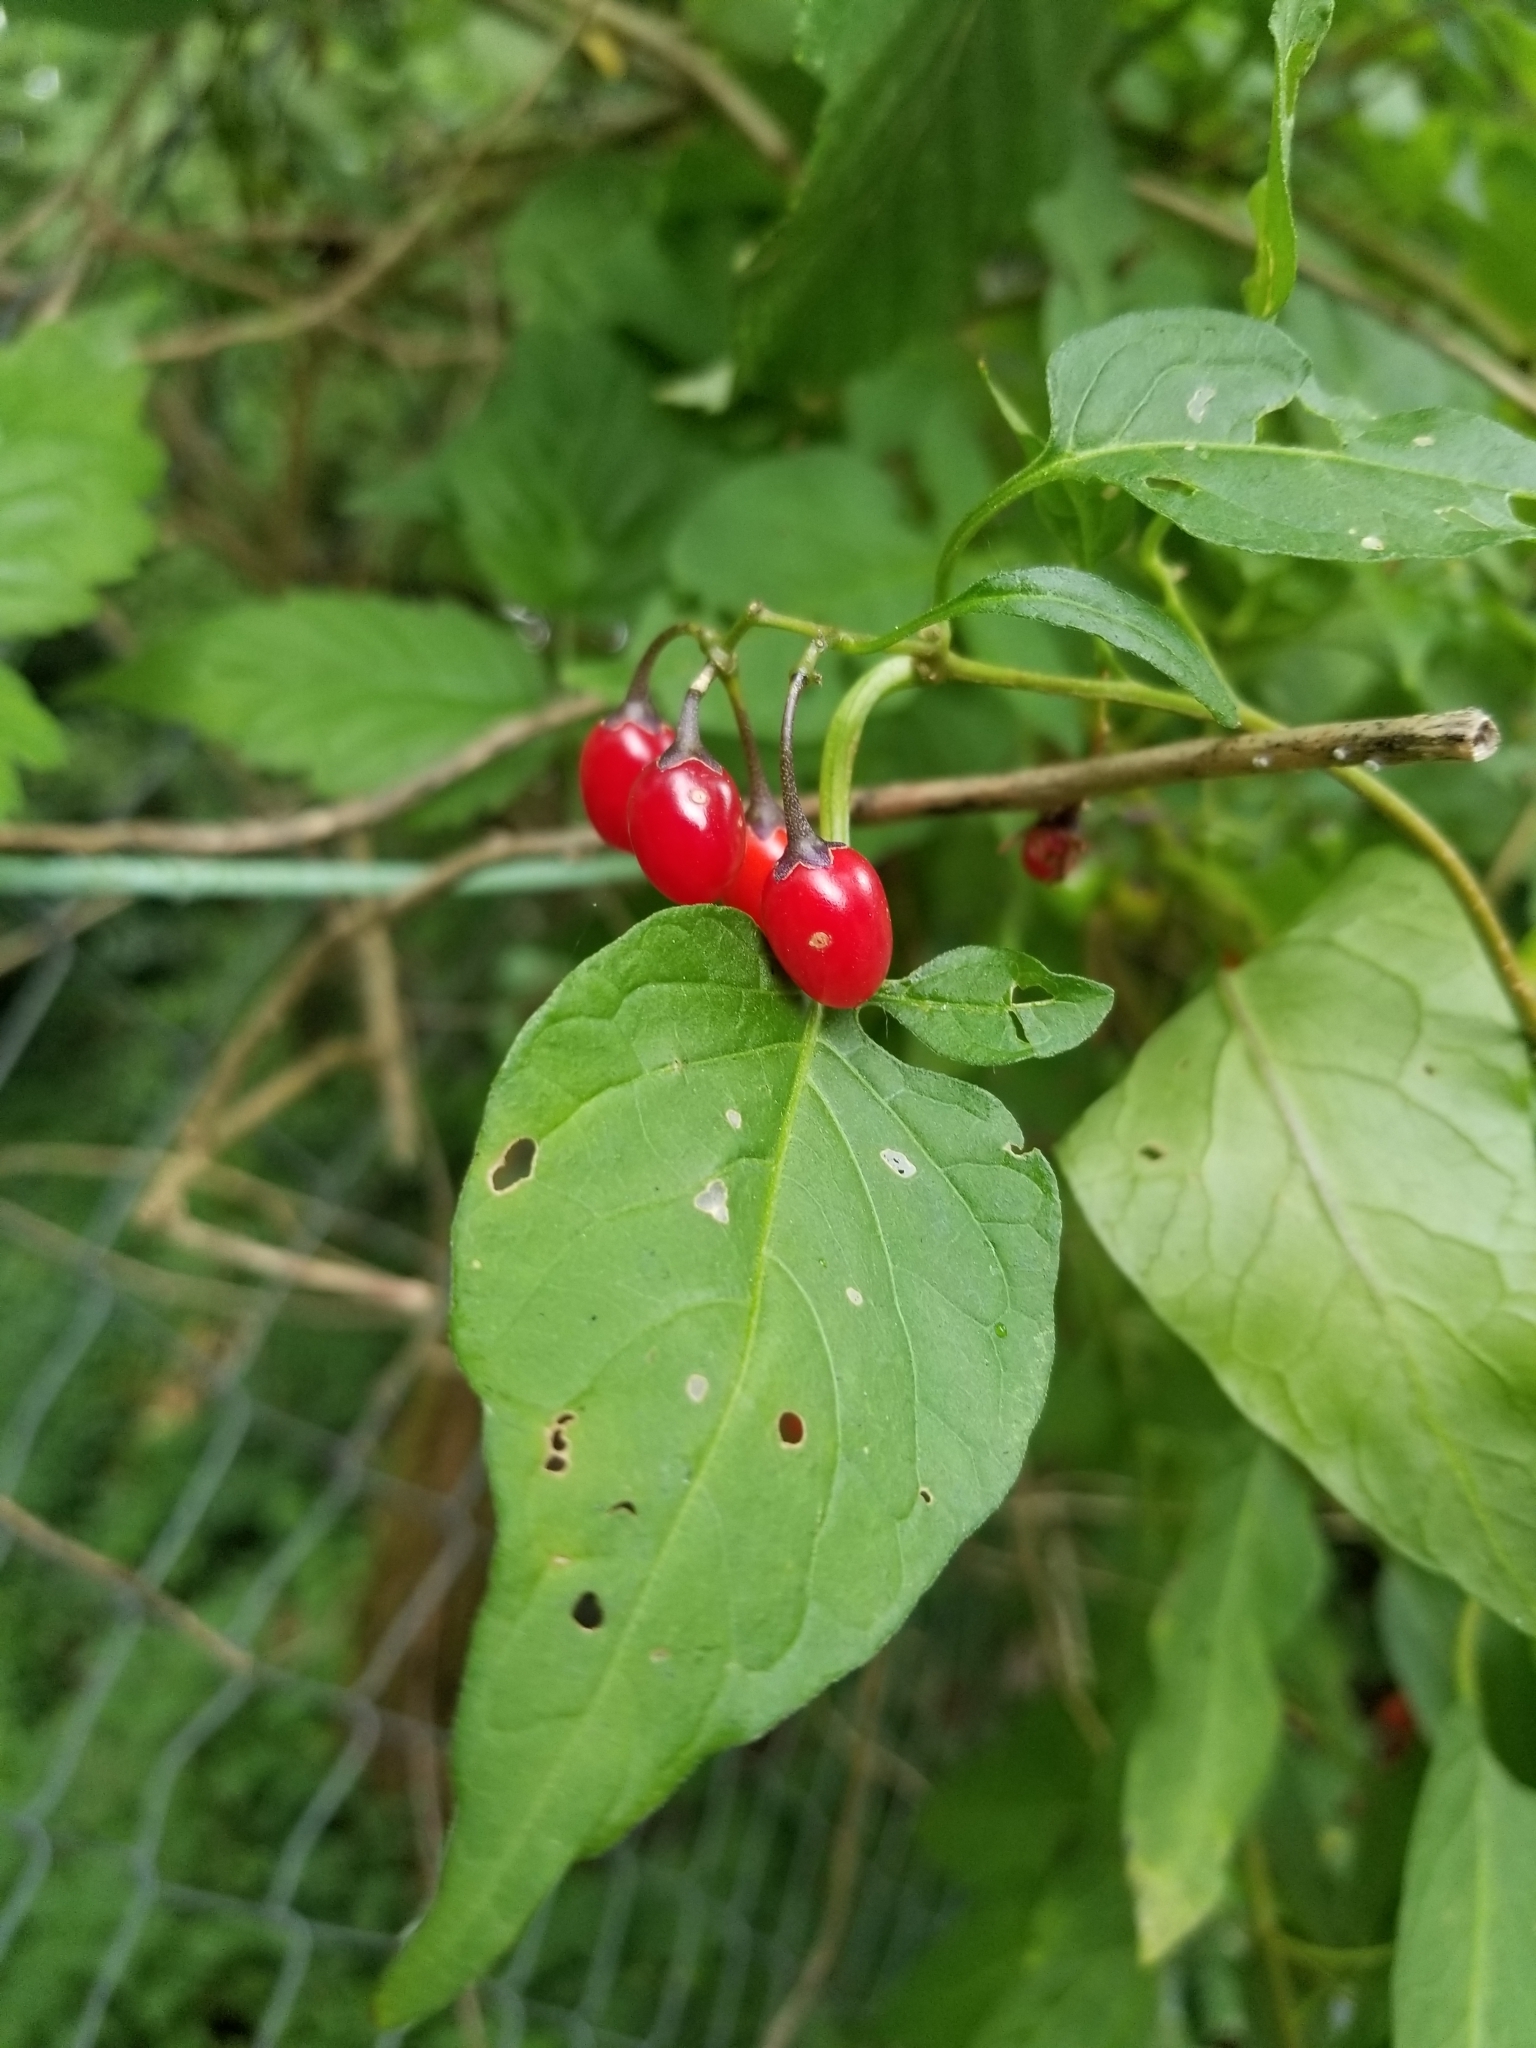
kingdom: Plantae
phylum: Tracheophyta
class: Magnoliopsida
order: Solanales
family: Solanaceae
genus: Solanum
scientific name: Solanum dulcamara
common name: Climbing nightshade
